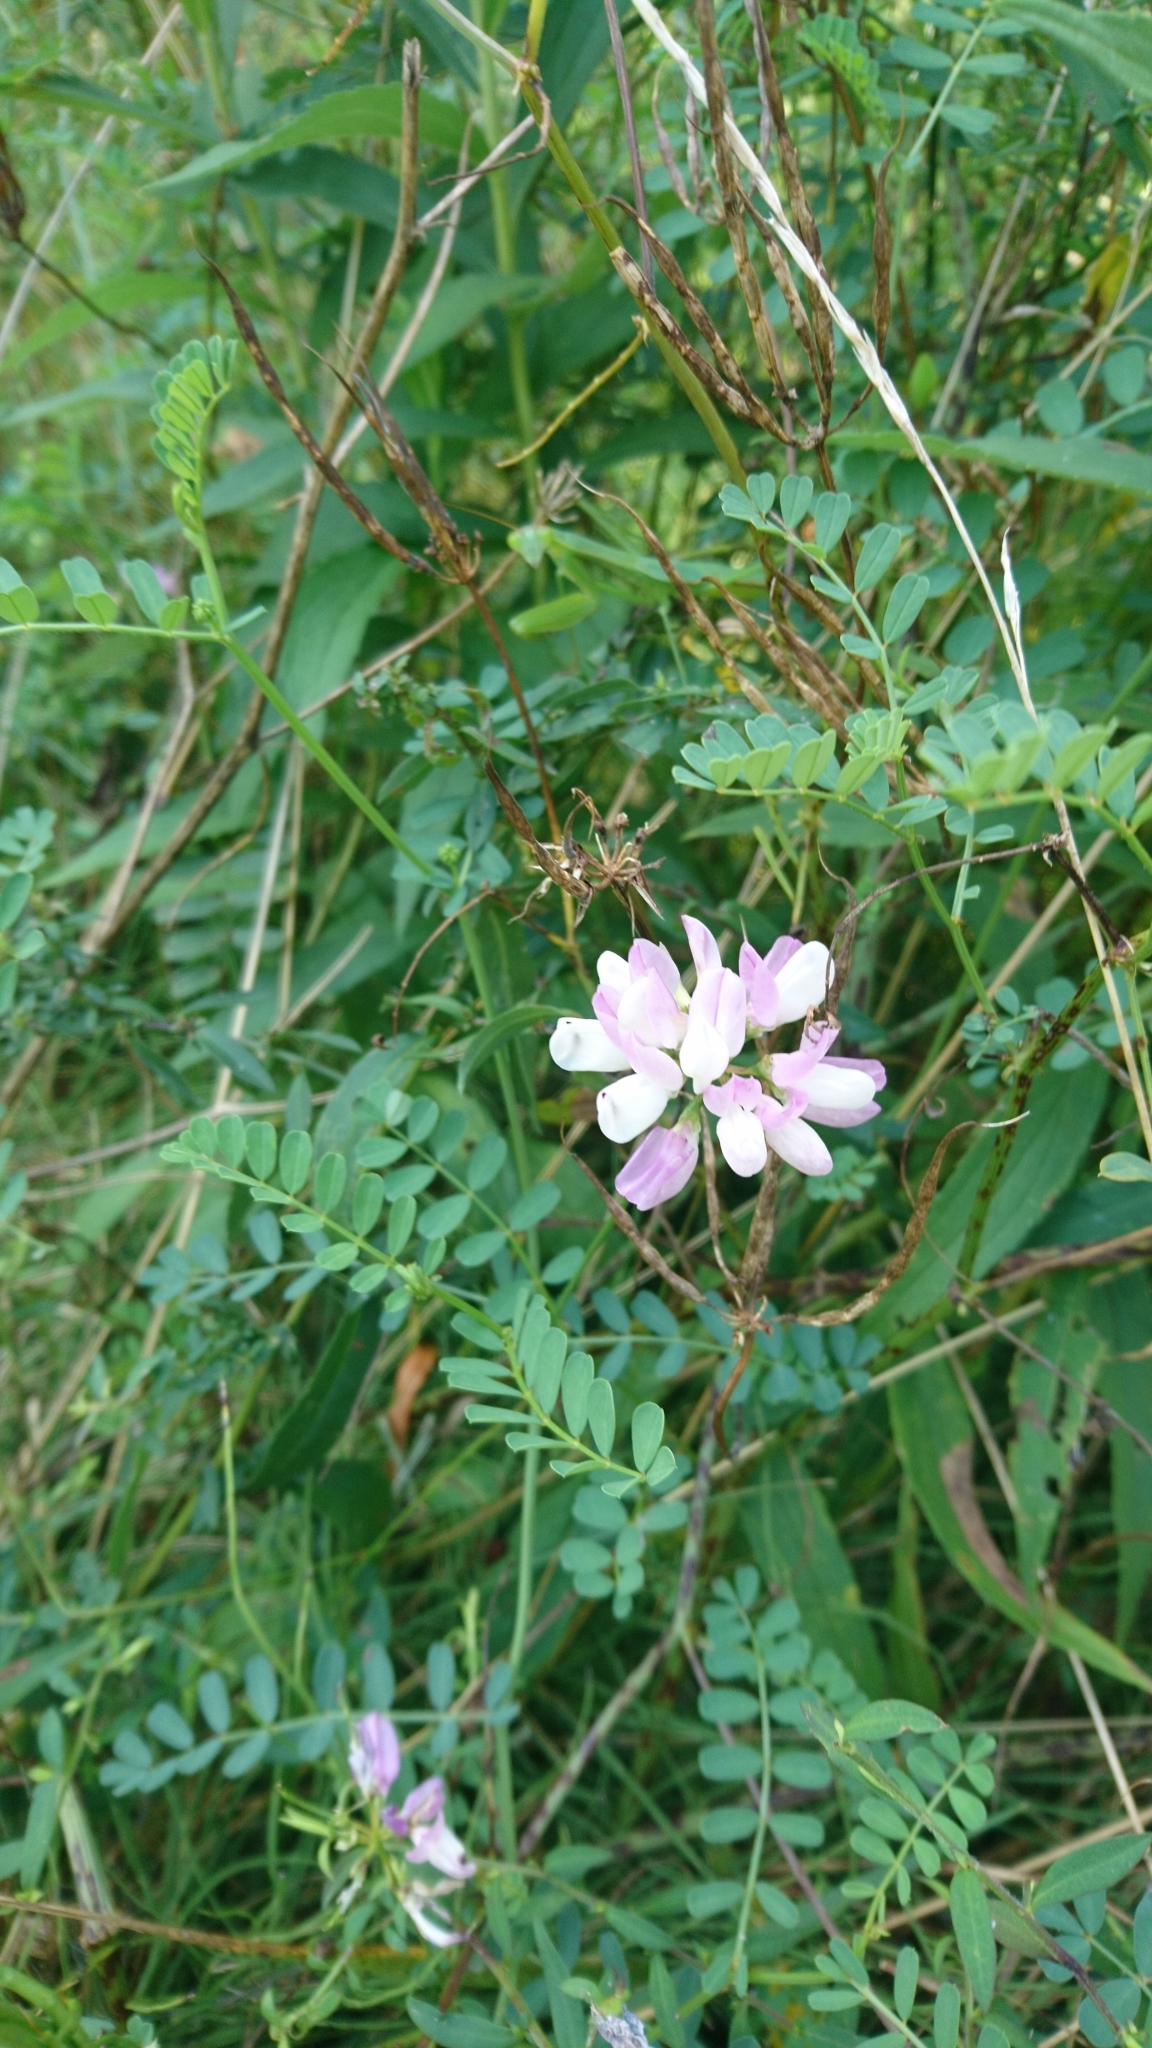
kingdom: Plantae
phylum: Tracheophyta
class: Magnoliopsida
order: Fabales
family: Fabaceae
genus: Coronilla
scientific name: Coronilla varia
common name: Crownvetch
